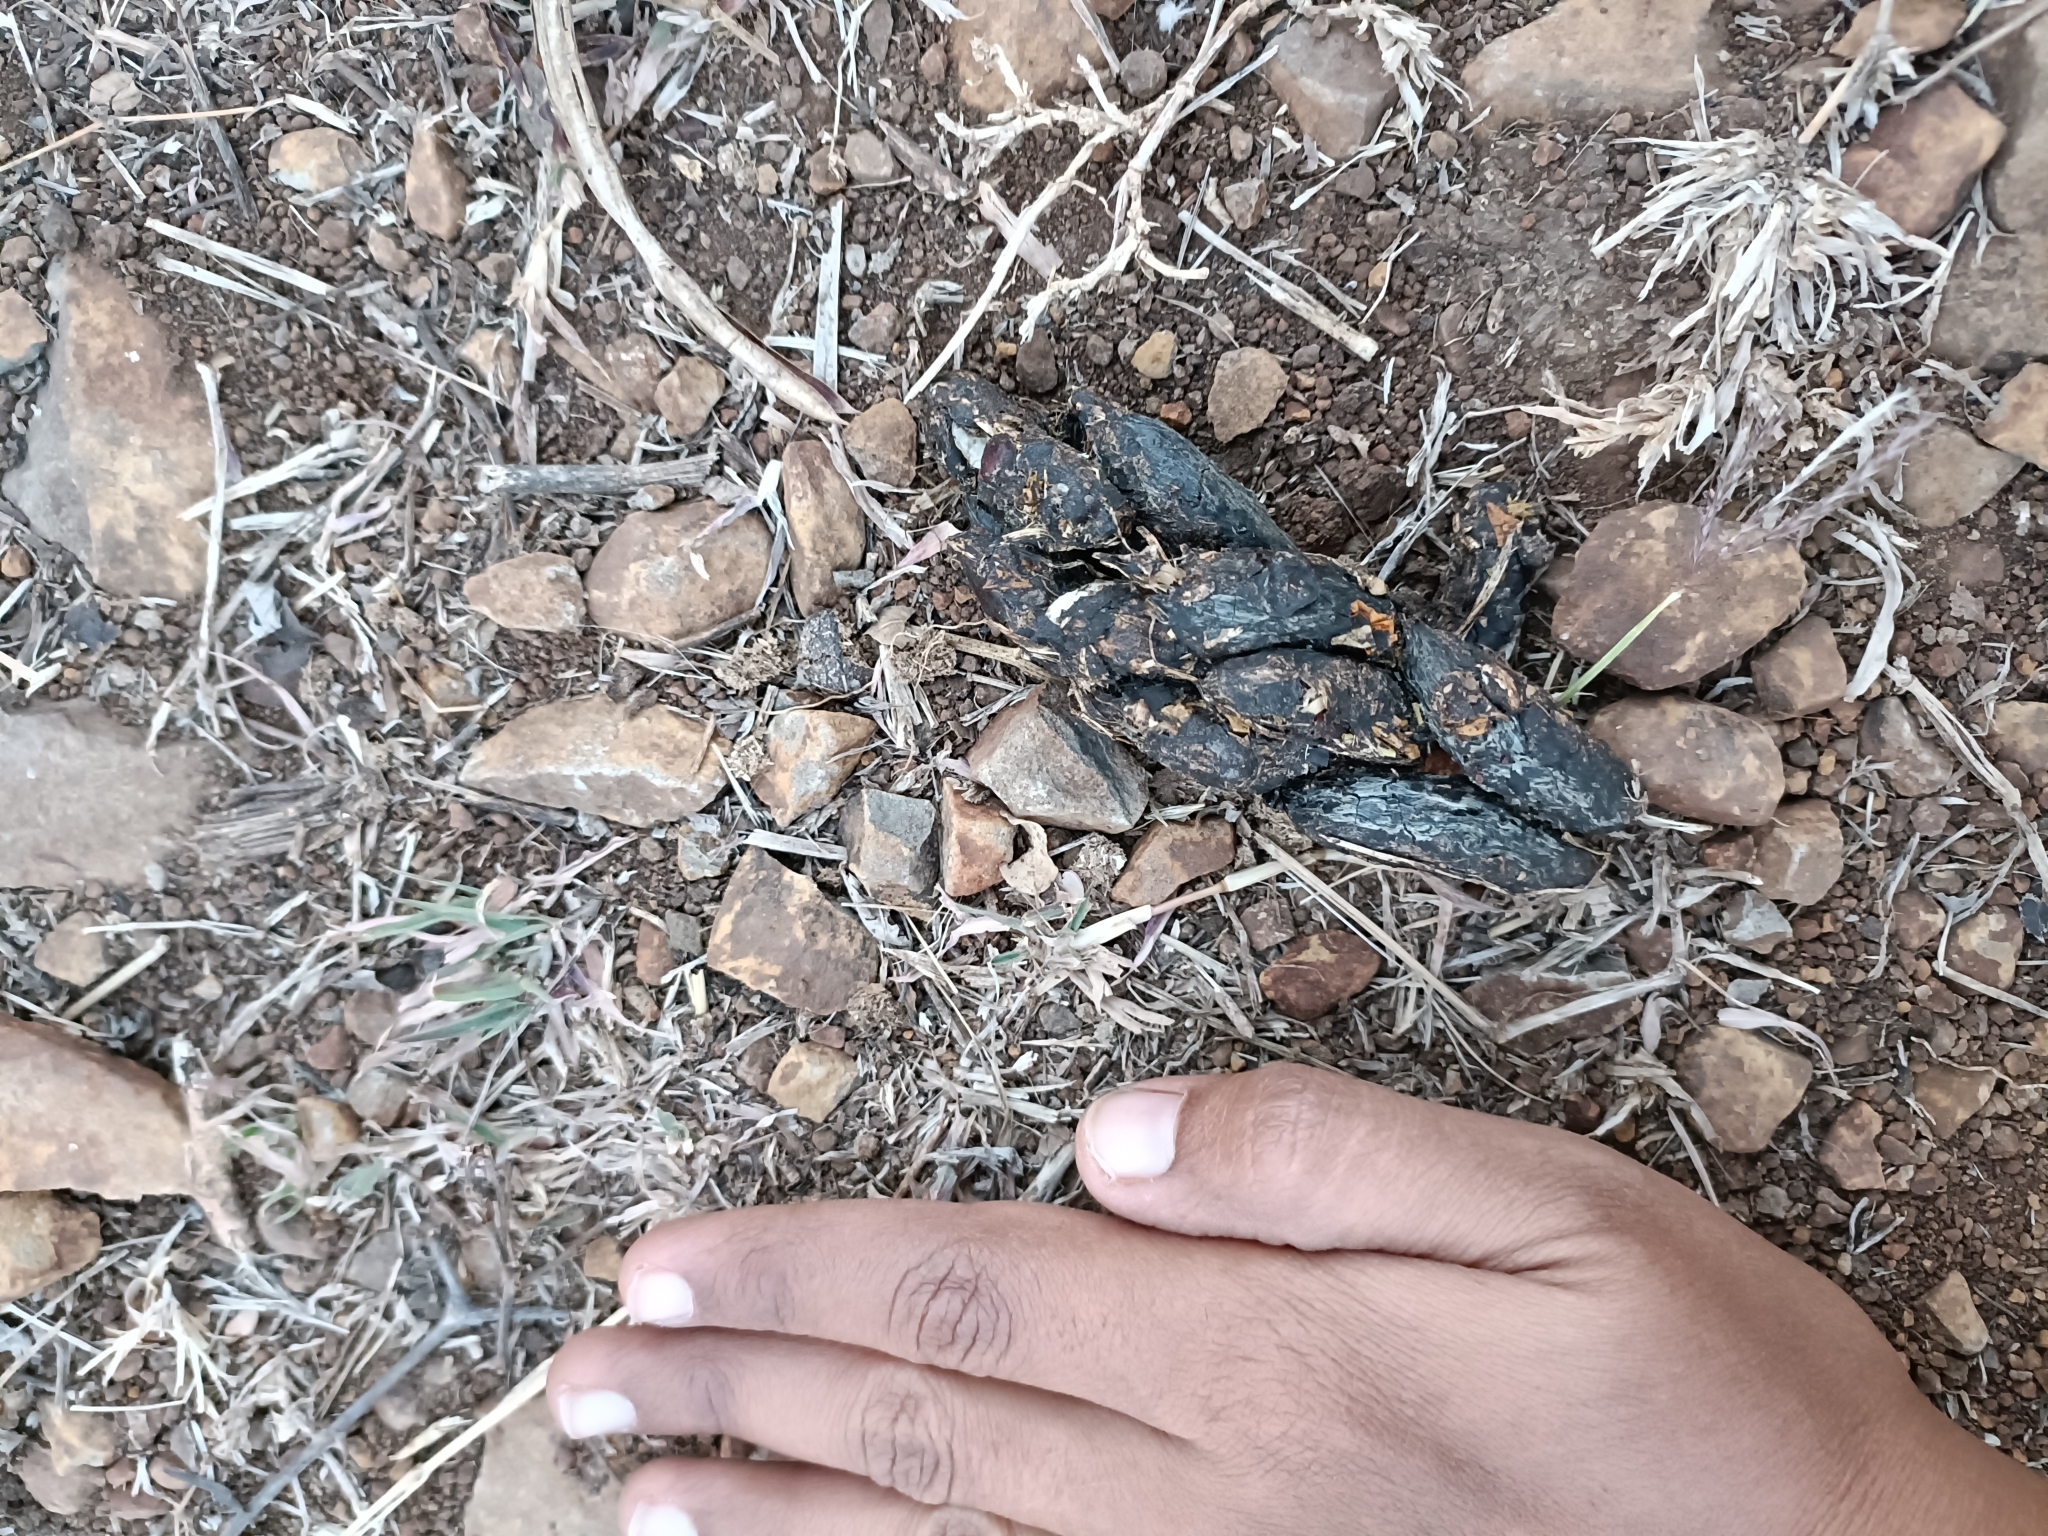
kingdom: Animalia
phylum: Chordata
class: Mammalia
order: Rodentia
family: Hystricidae
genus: Hystrix
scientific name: Hystrix indica
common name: Indian crested porcupine
